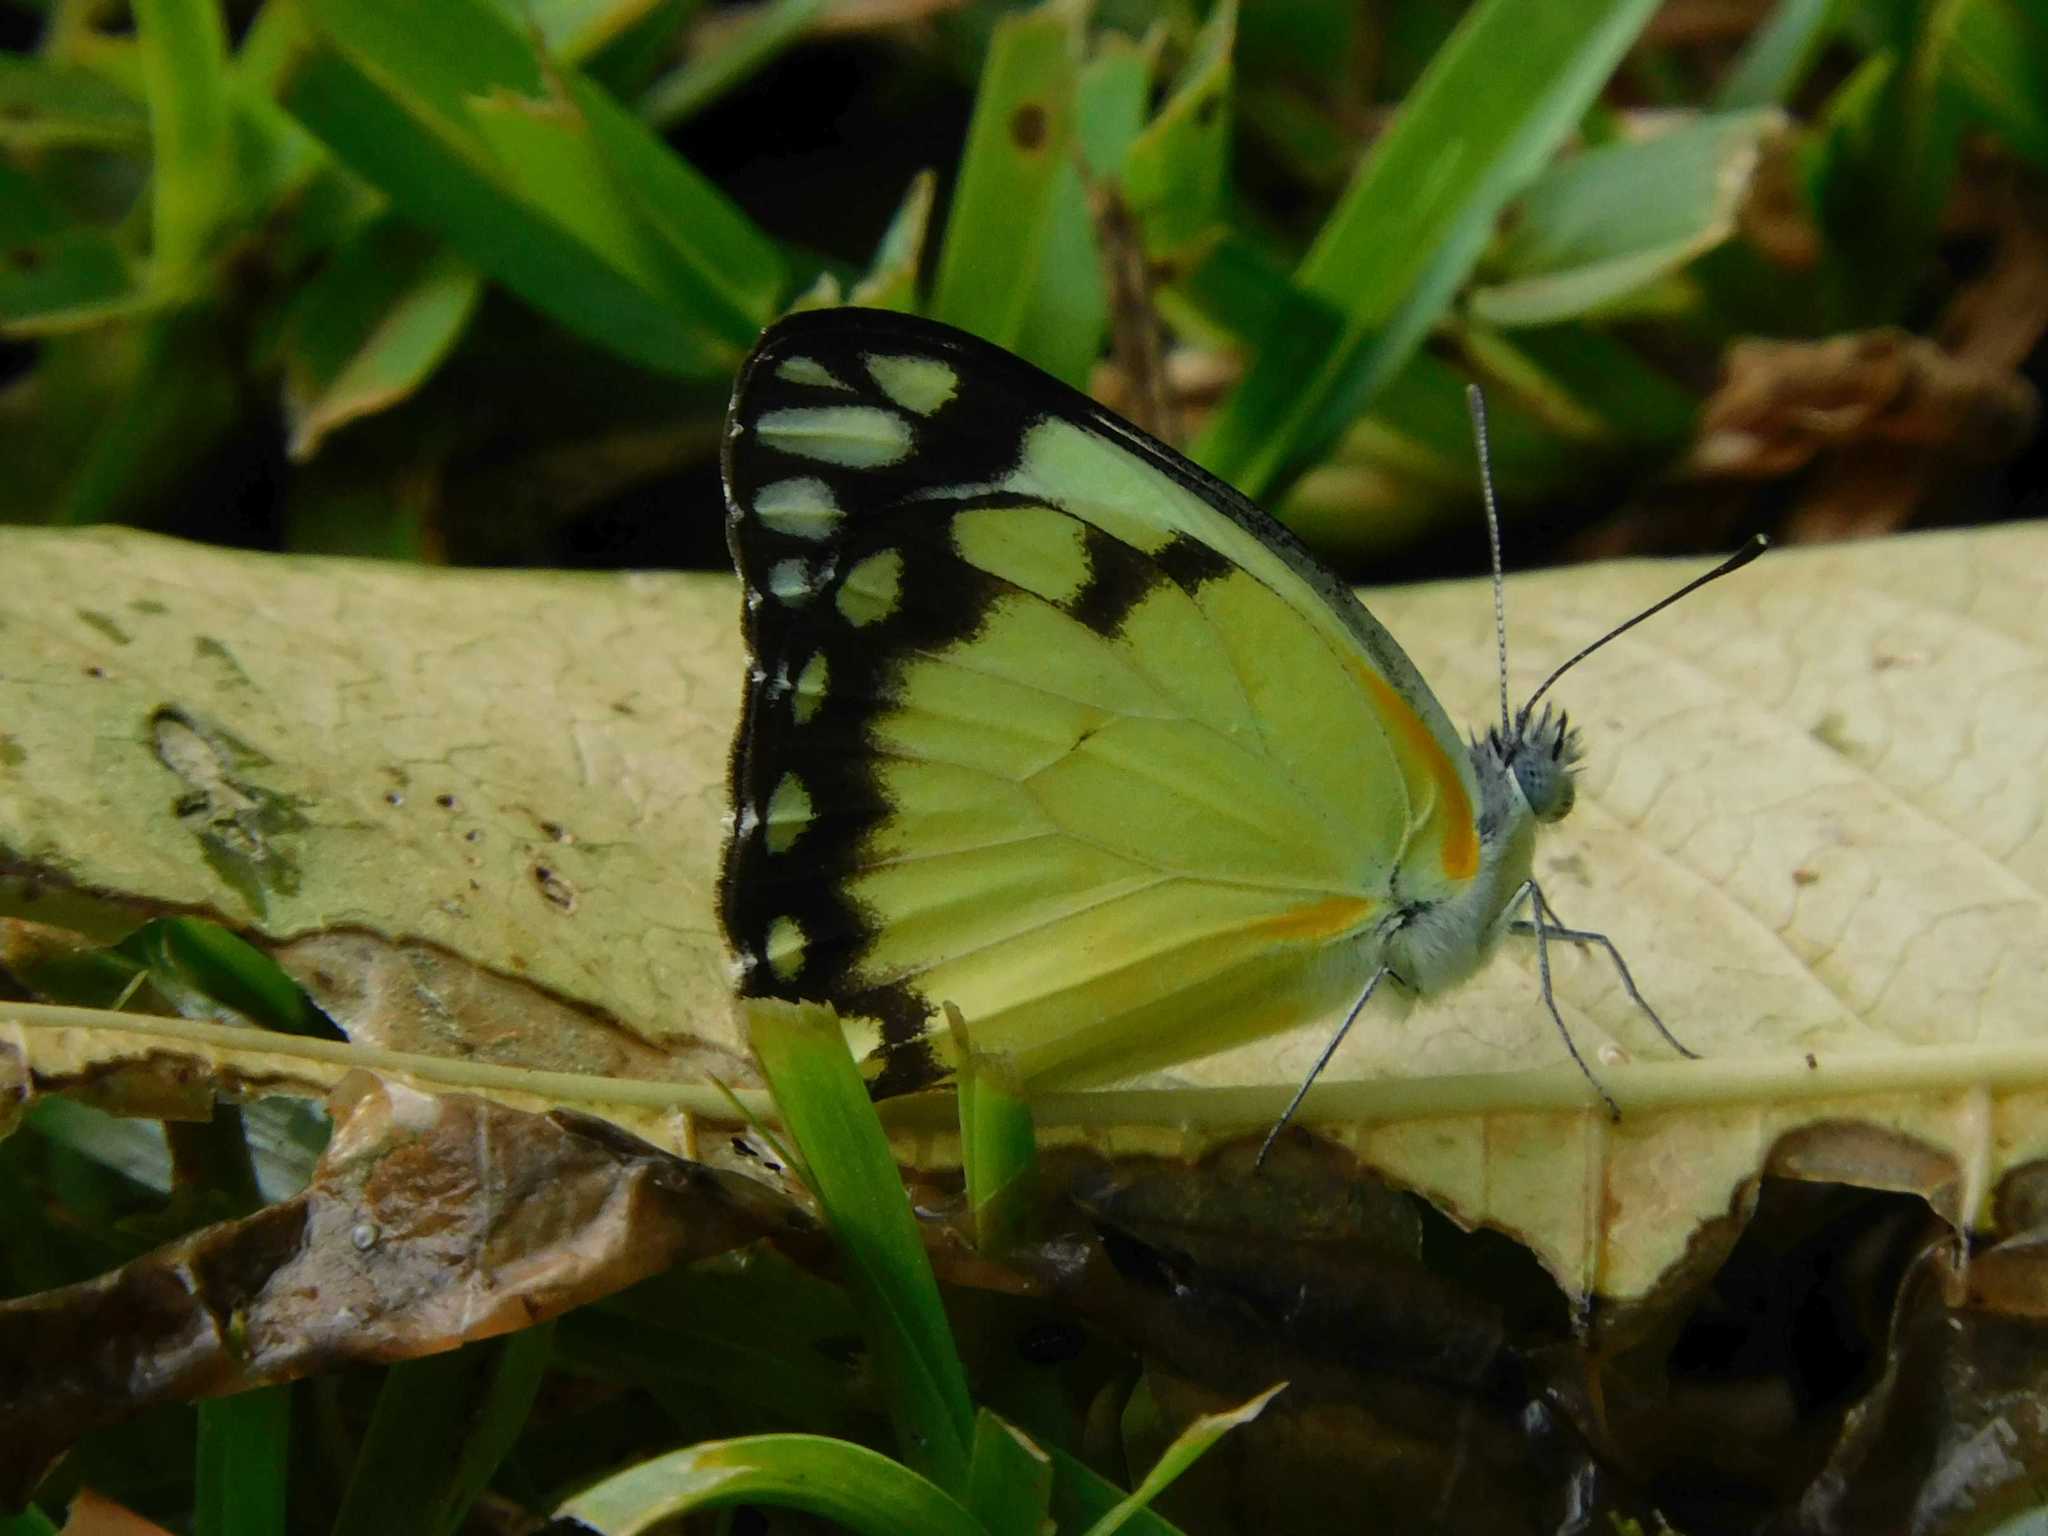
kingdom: Animalia
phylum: Arthropoda
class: Insecta
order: Lepidoptera
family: Pieridae
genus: Belenois
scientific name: Belenois creona
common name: African caper white
